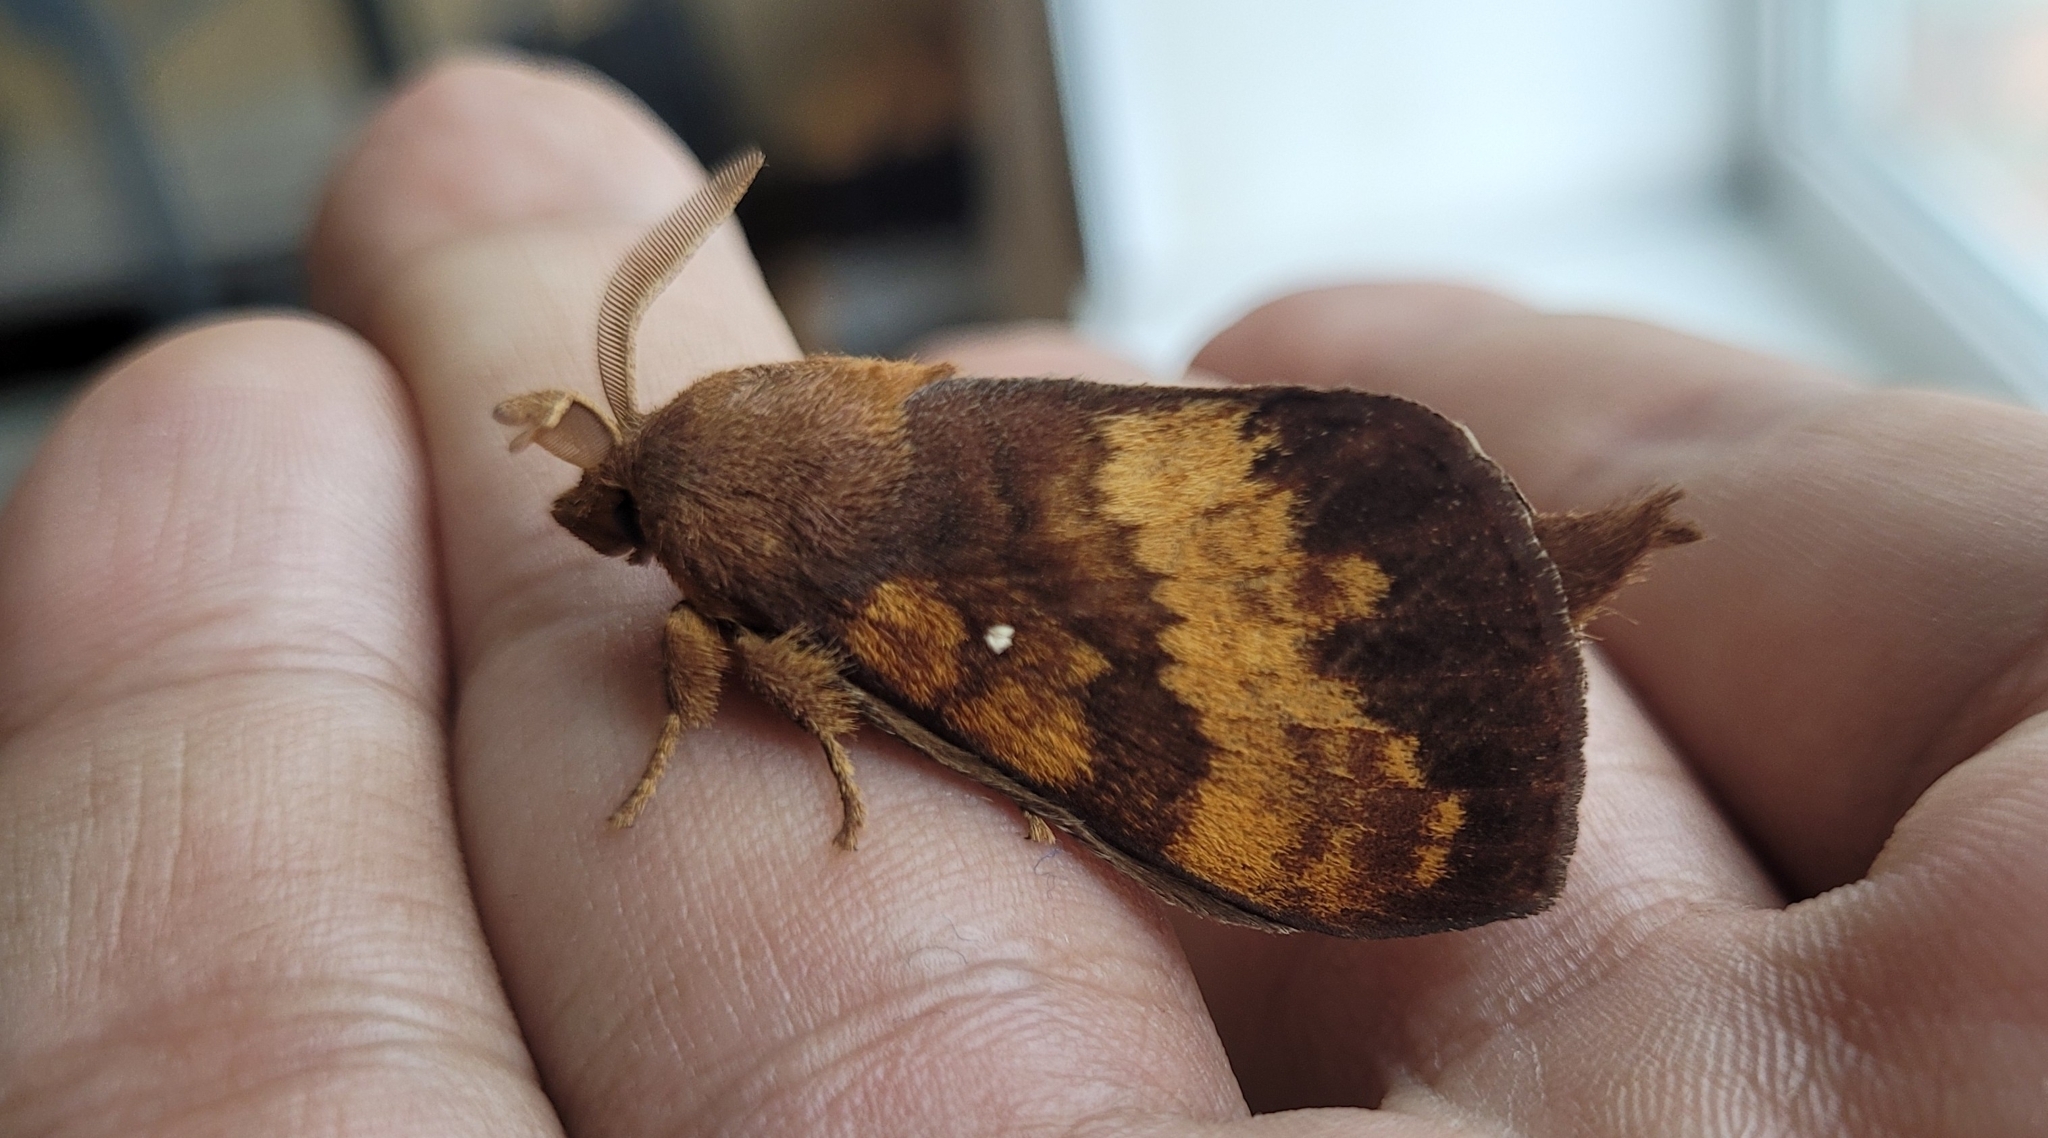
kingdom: Animalia
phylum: Arthropoda
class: Insecta
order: Lepidoptera
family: Lasiocampidae
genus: Kunugia
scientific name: Kunugia undans
